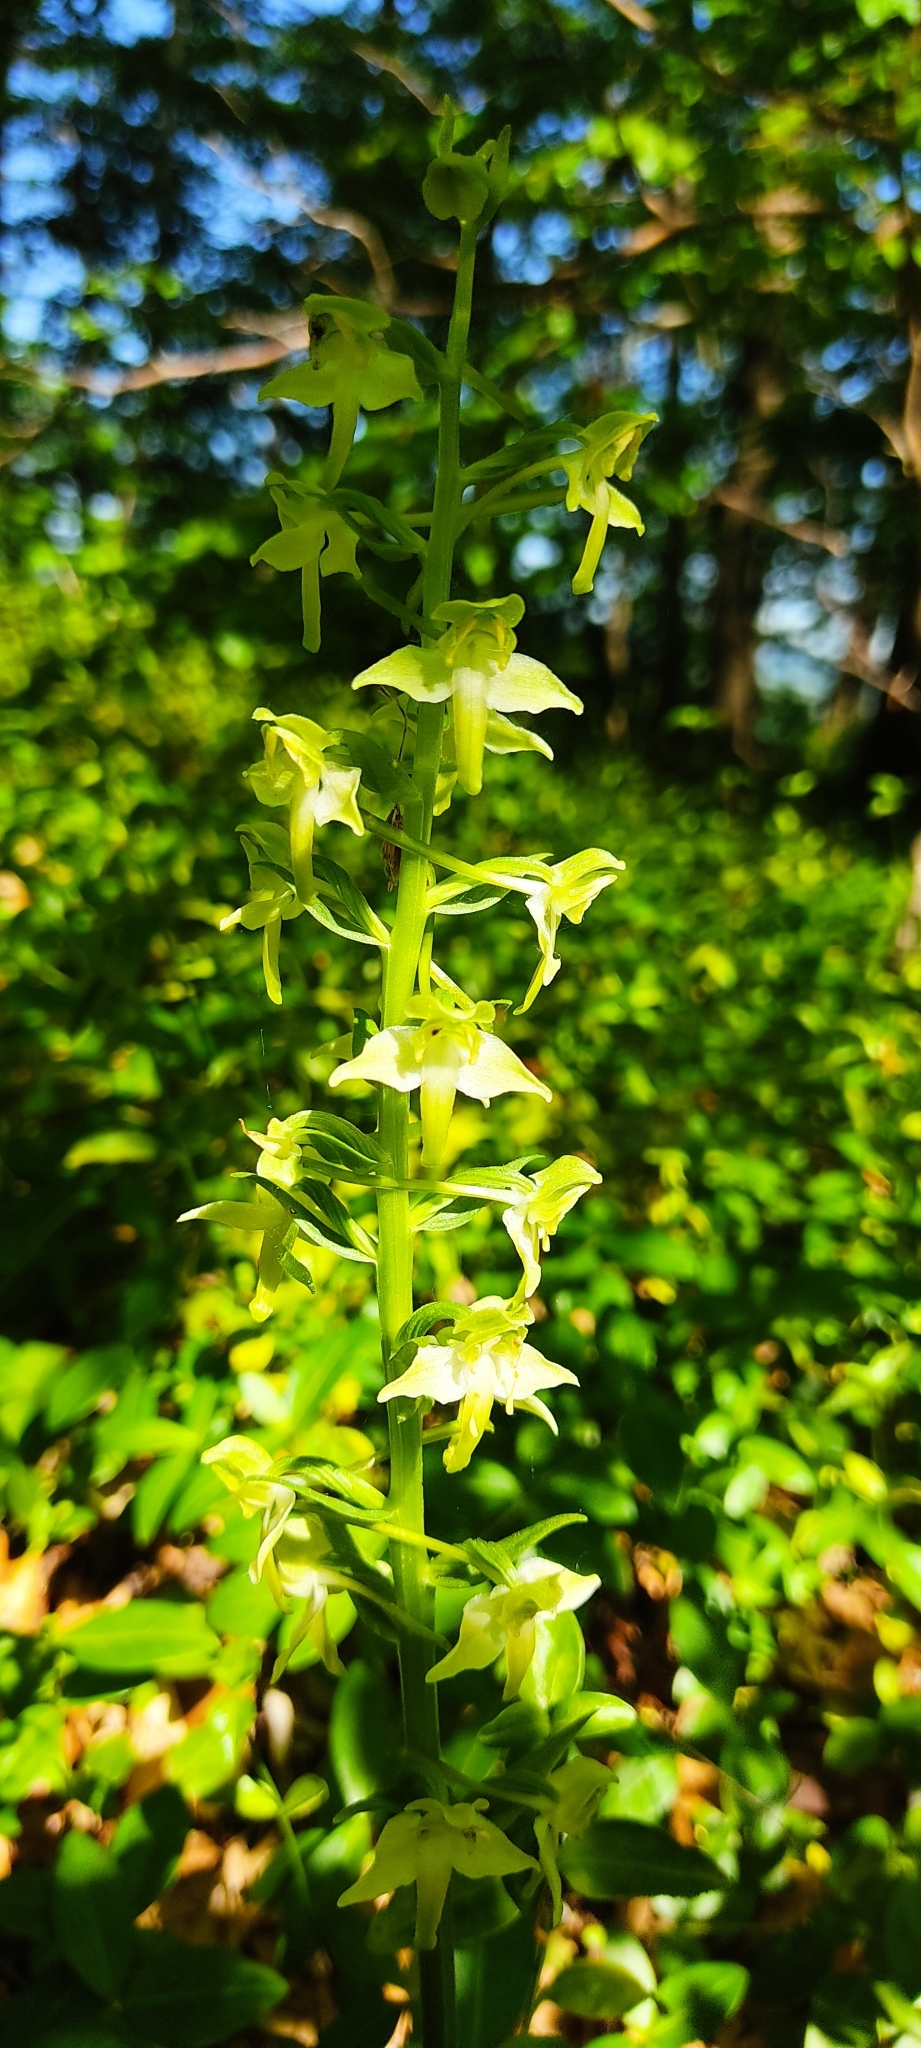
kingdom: Plantae
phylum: Tracheophyta
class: Liliopsida
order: Asparagales
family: Orchidaceae
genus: Platanthera
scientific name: Platanthera chlorantha
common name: Greater butterfly-orchid
